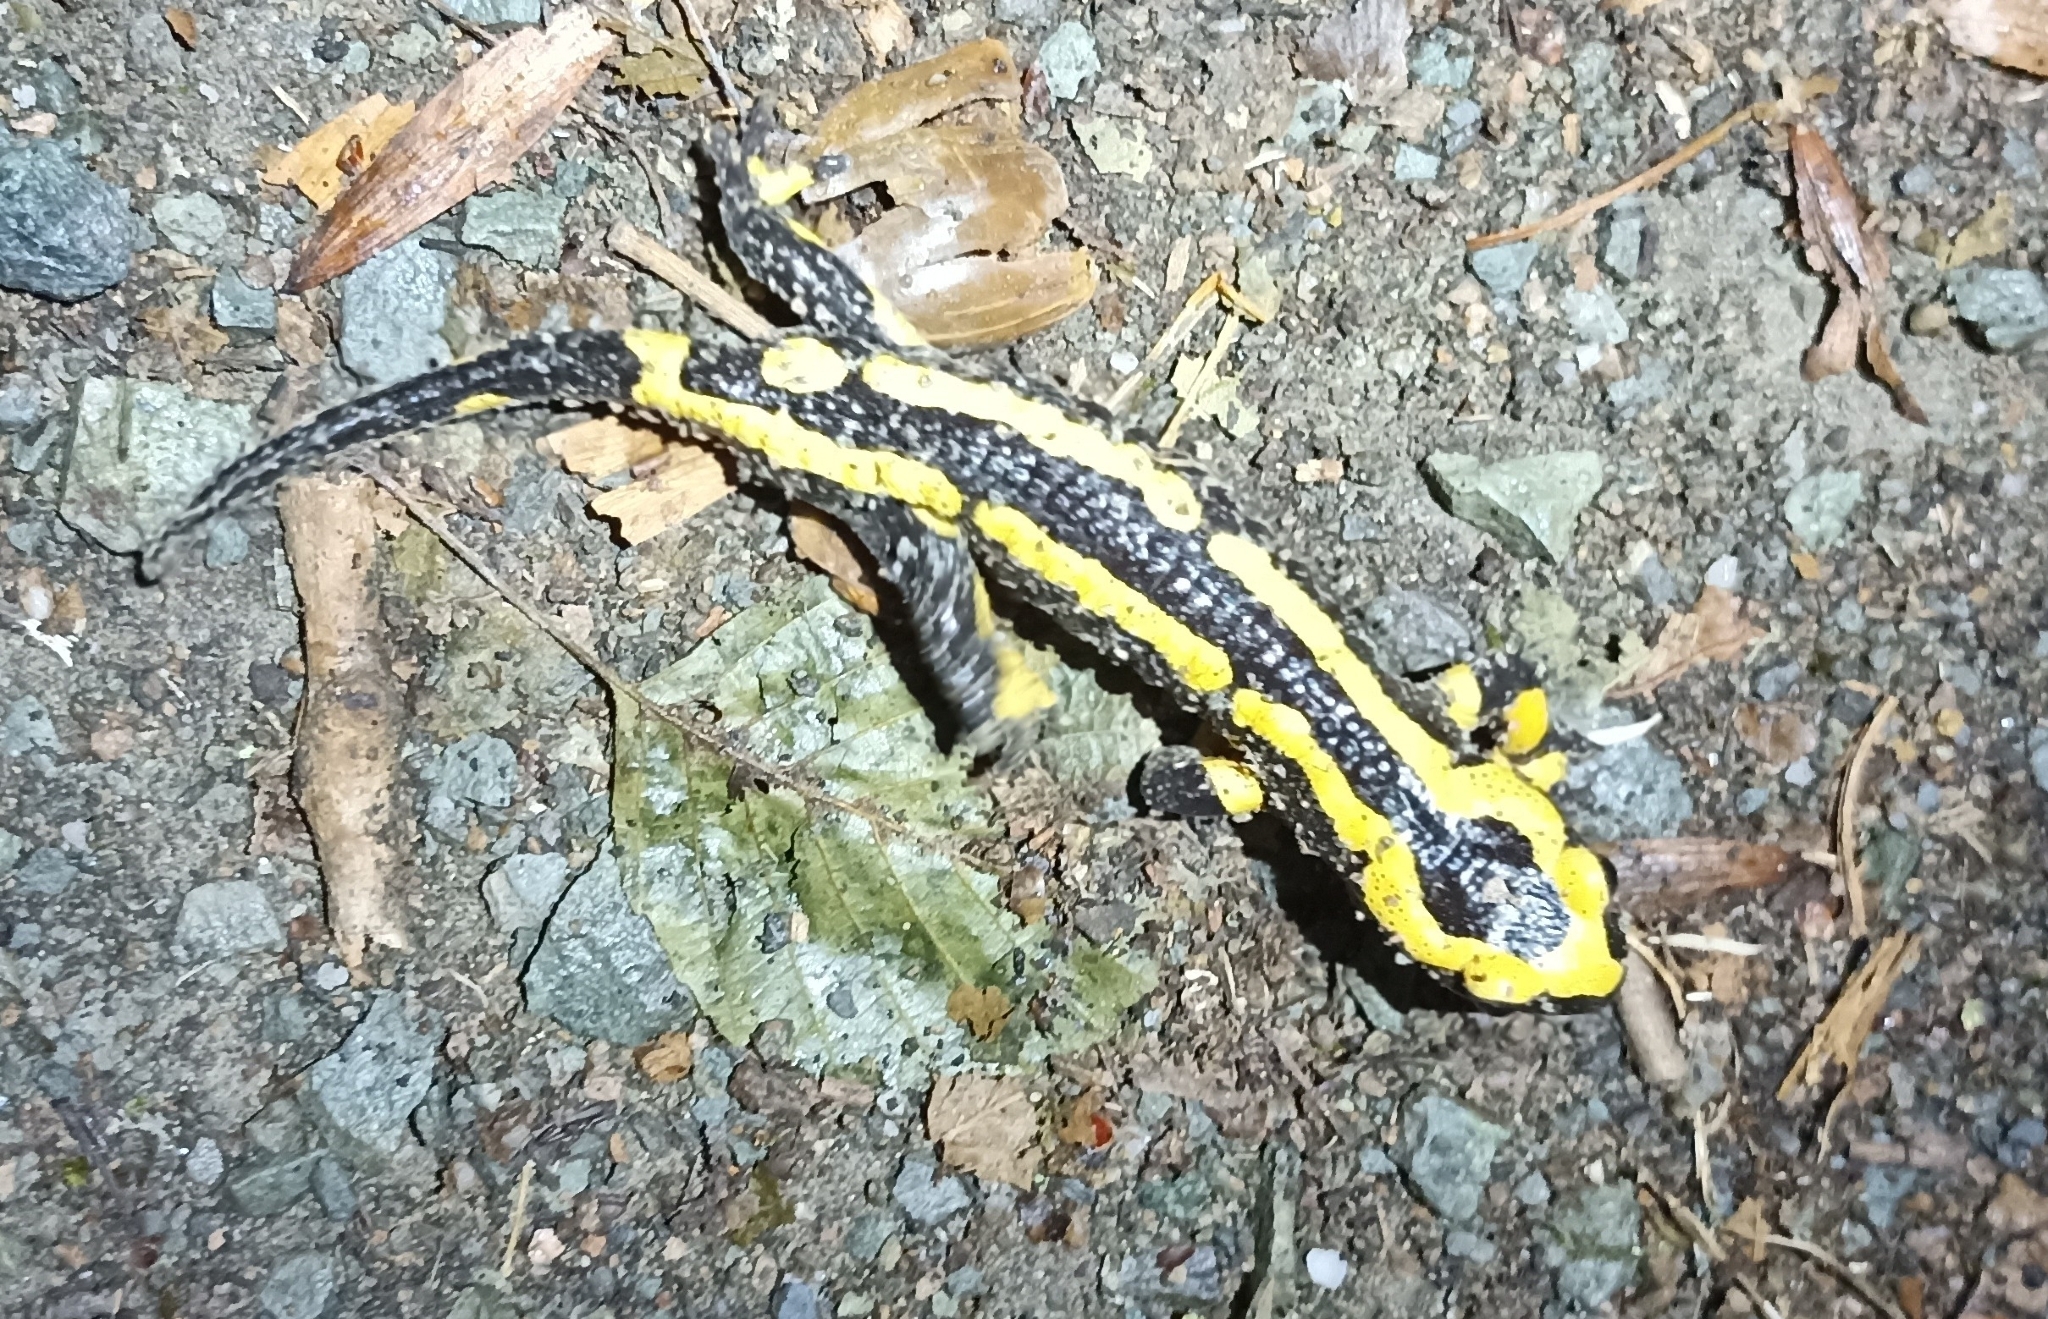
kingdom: Animalia
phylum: Chordata
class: Amphibia
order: Caudata
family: Salamandridae
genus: Salamandra
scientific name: Salamandra salamandra
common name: Fire salamander
